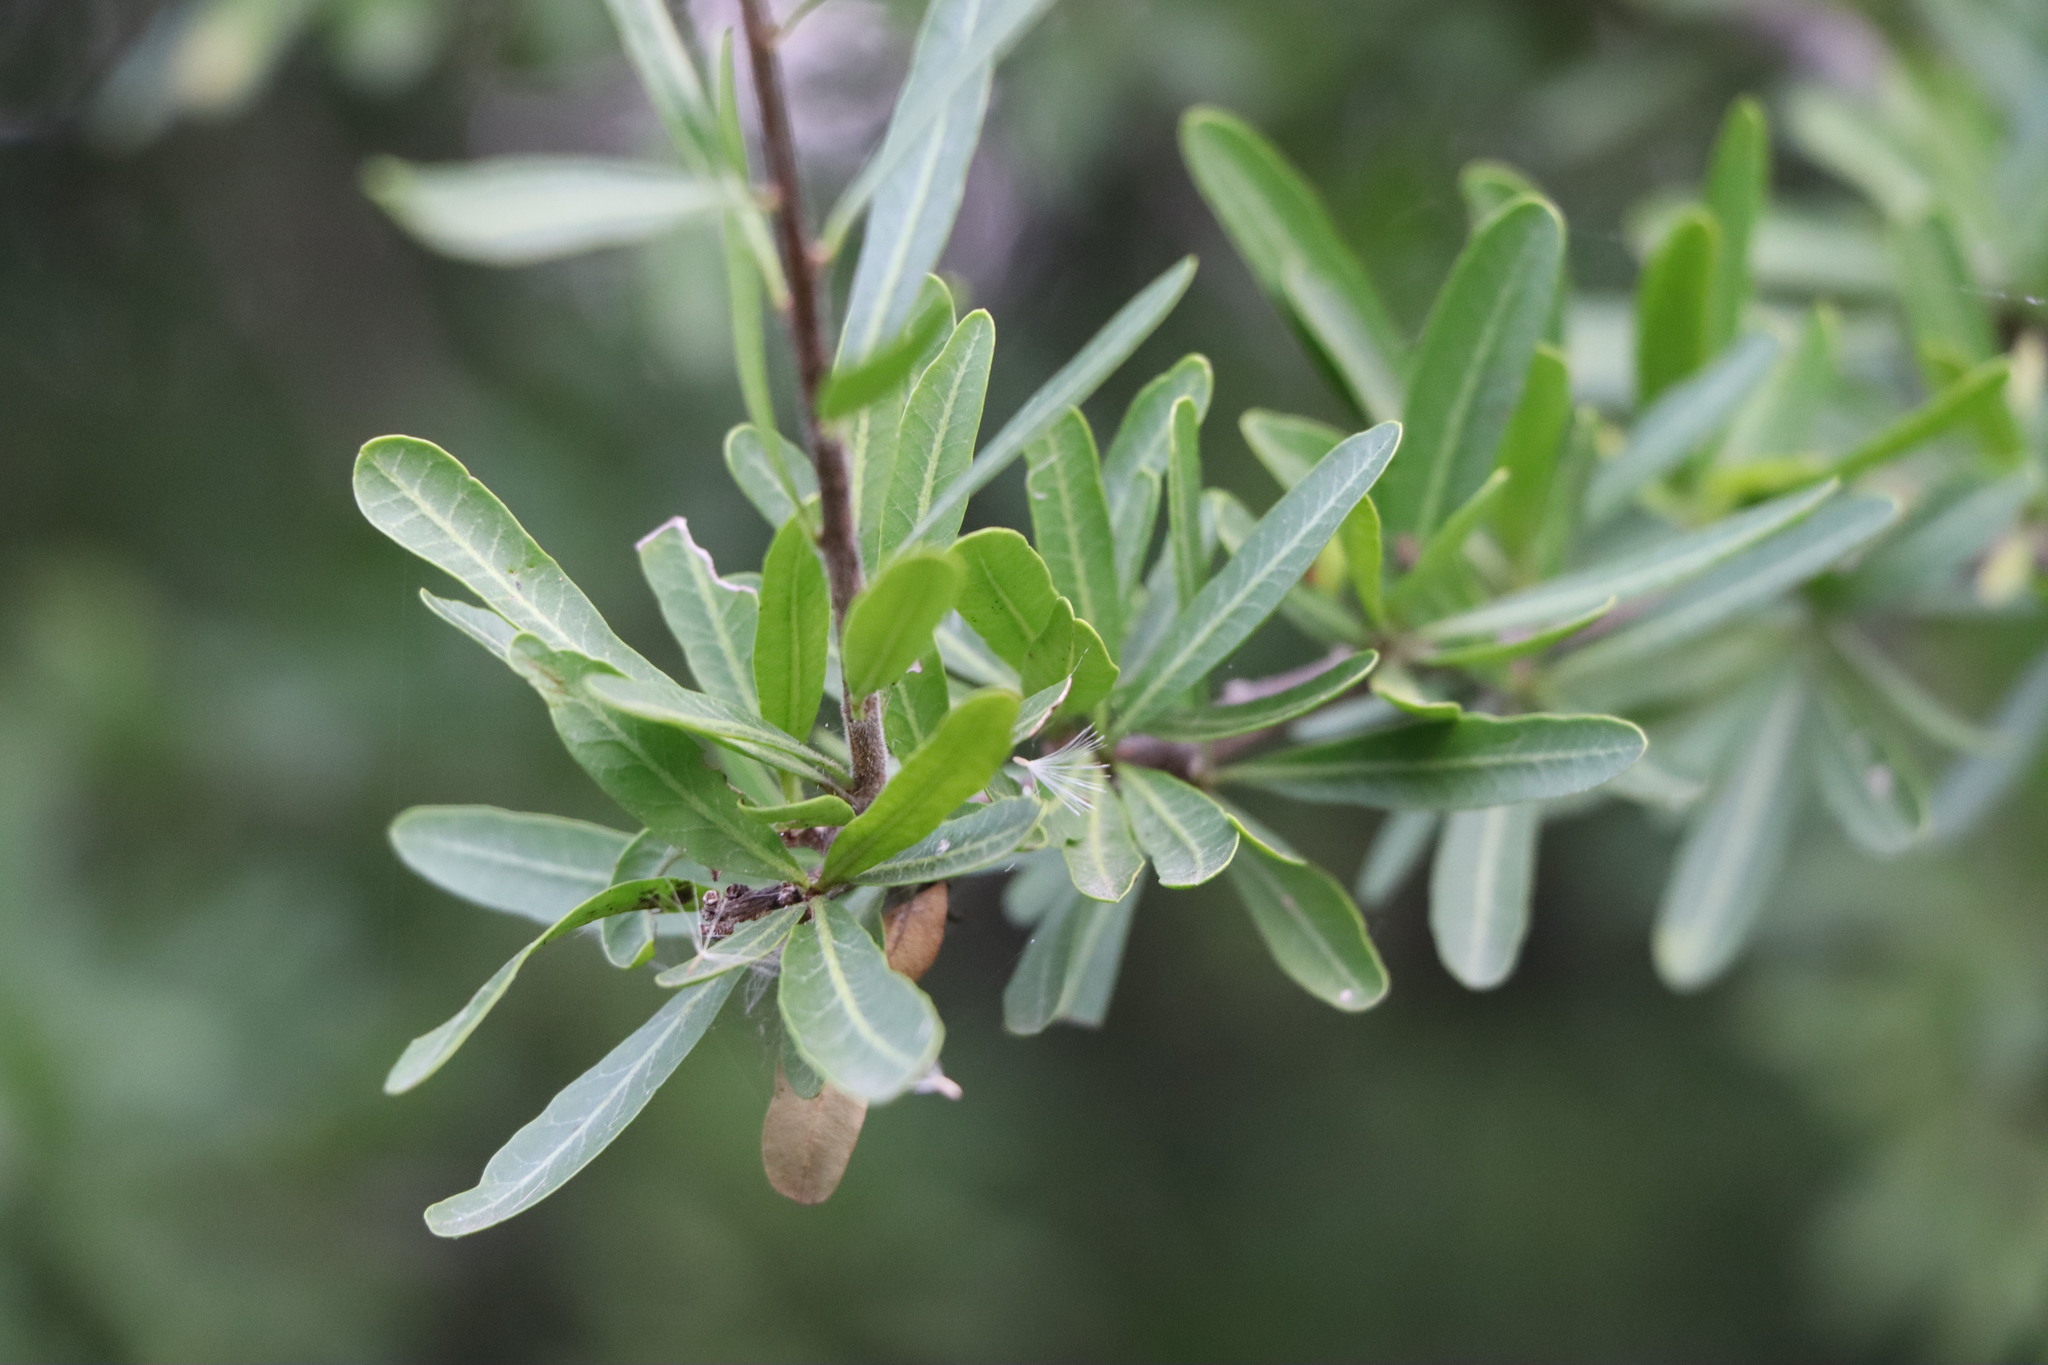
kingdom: Plantae
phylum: Tracheophyta
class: Magnoliopsida
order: Sapindales
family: Anacardiaceae
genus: Schinus
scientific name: Schinus longifolia
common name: Longleaf peppertree
